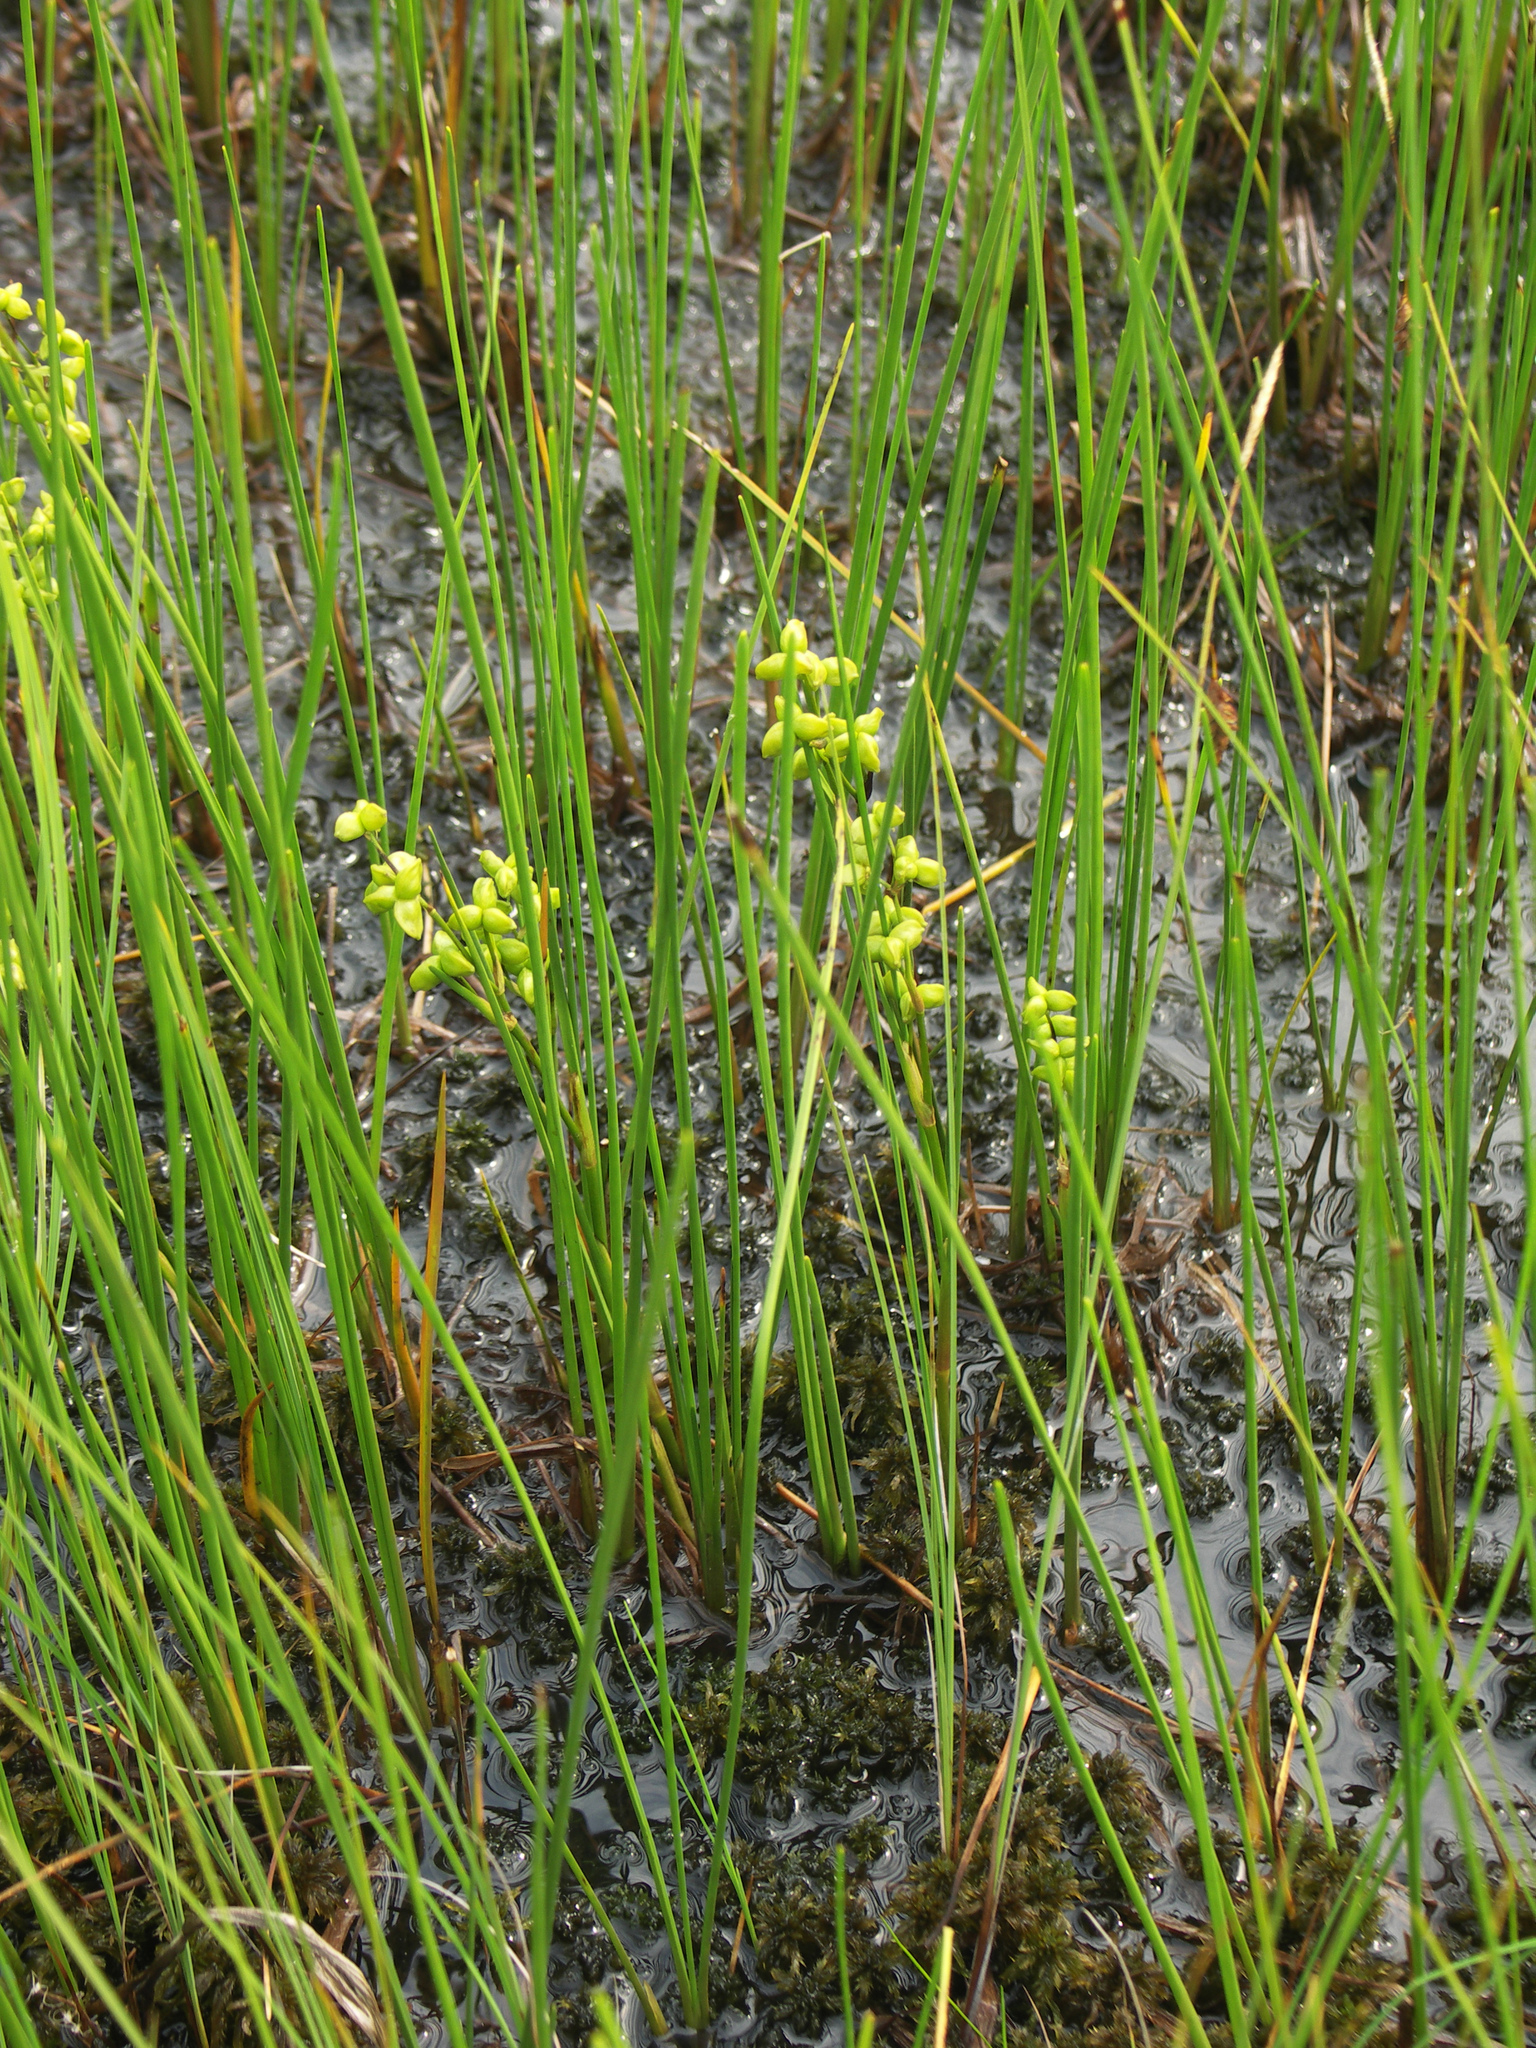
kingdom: Plantae
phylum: Tracheophyta
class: Liliopsida
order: Alismatales
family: Scheuchzeriaceae
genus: Scheuchzeria
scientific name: Scheuchzeria palustris
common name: Rannoch-rush
